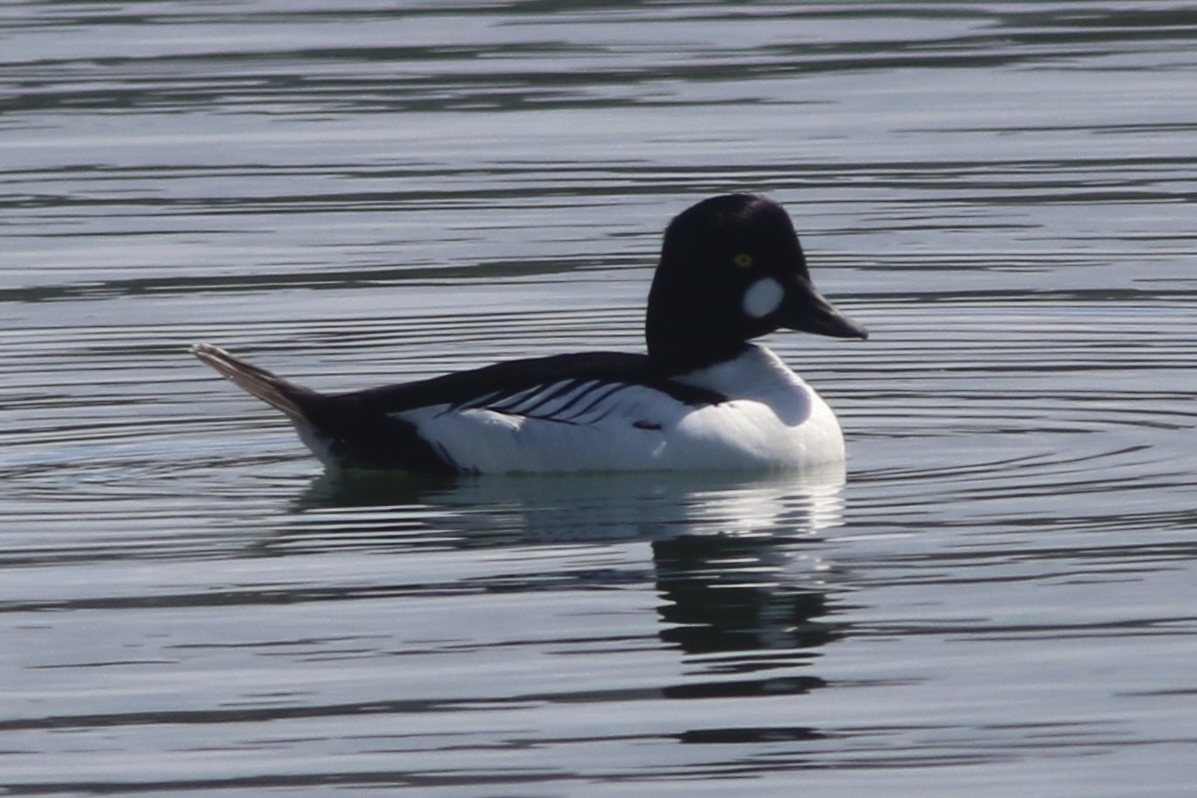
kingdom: Animalia
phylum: Chordata
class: Aves
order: Anseriformes
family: Anatidae
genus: Bucephala
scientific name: Bucephala clangula
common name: Common goldeneye
